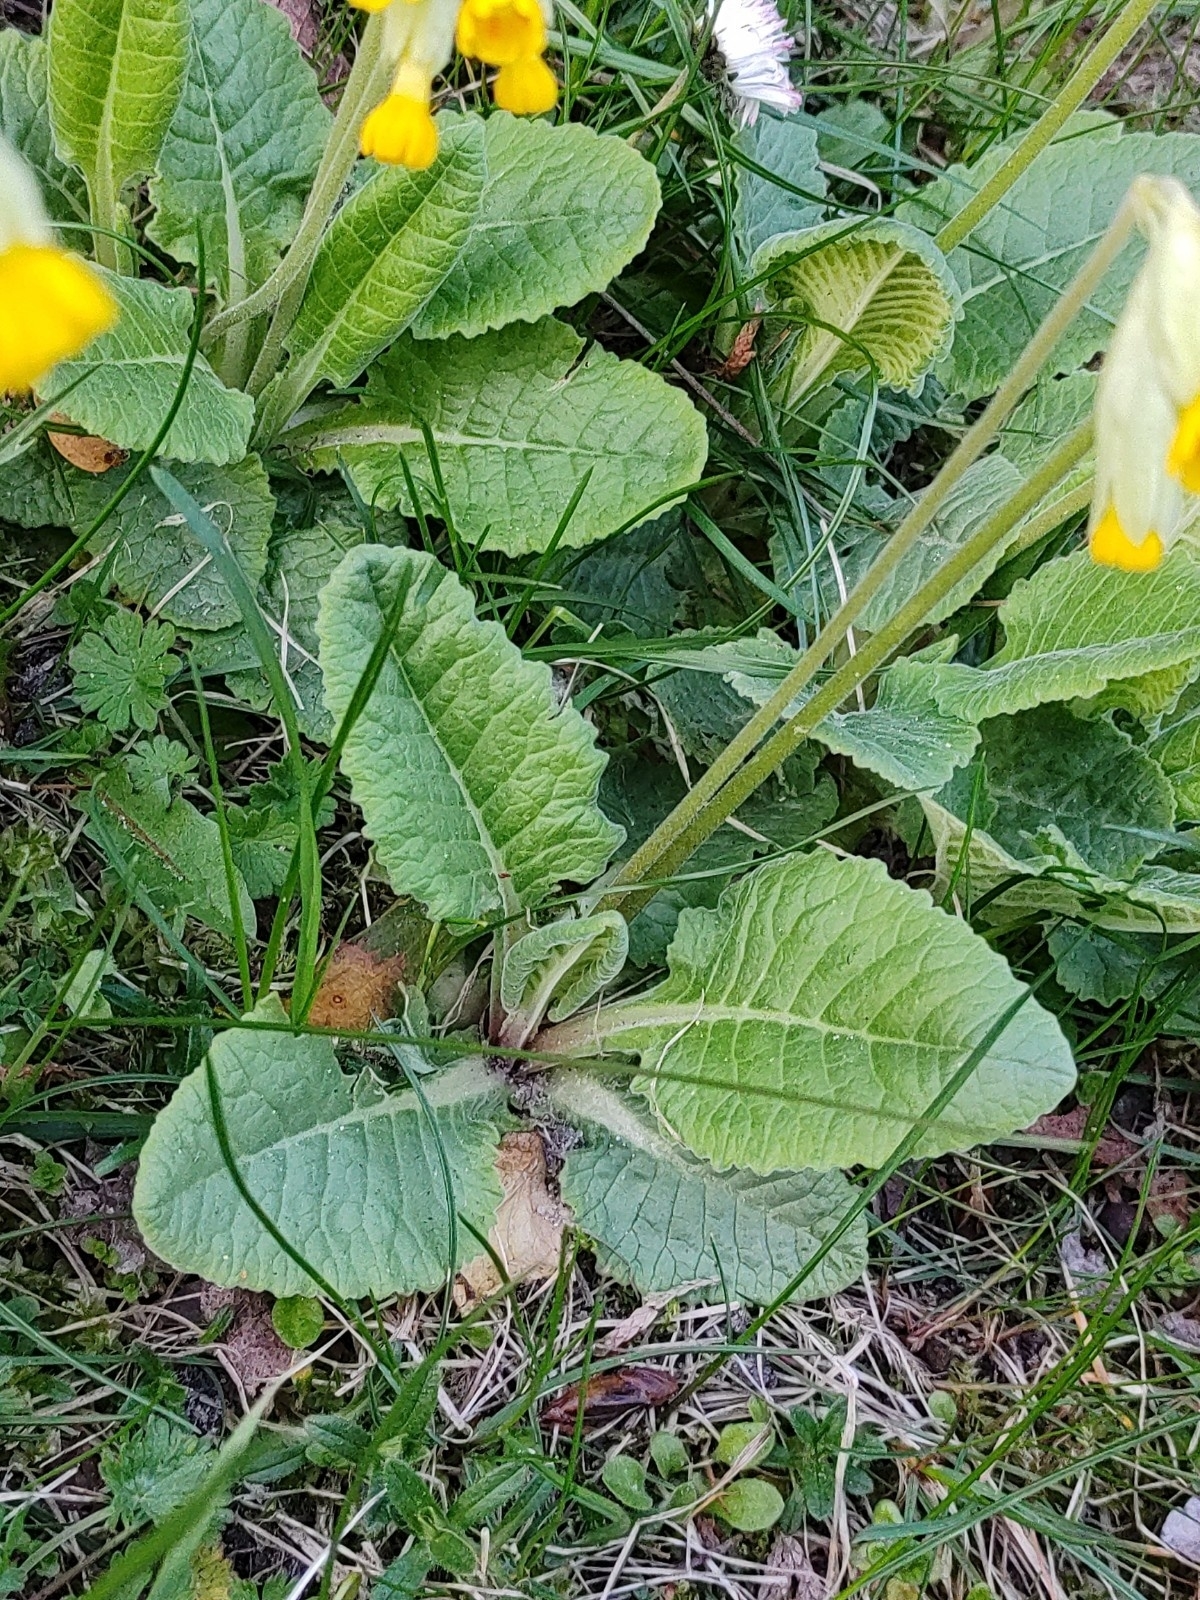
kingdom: Plantae
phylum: Tracheophyta
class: Magnoliopsida
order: Ericales
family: Primulaceae
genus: Primula
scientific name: Primula veris
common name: Cowslip
